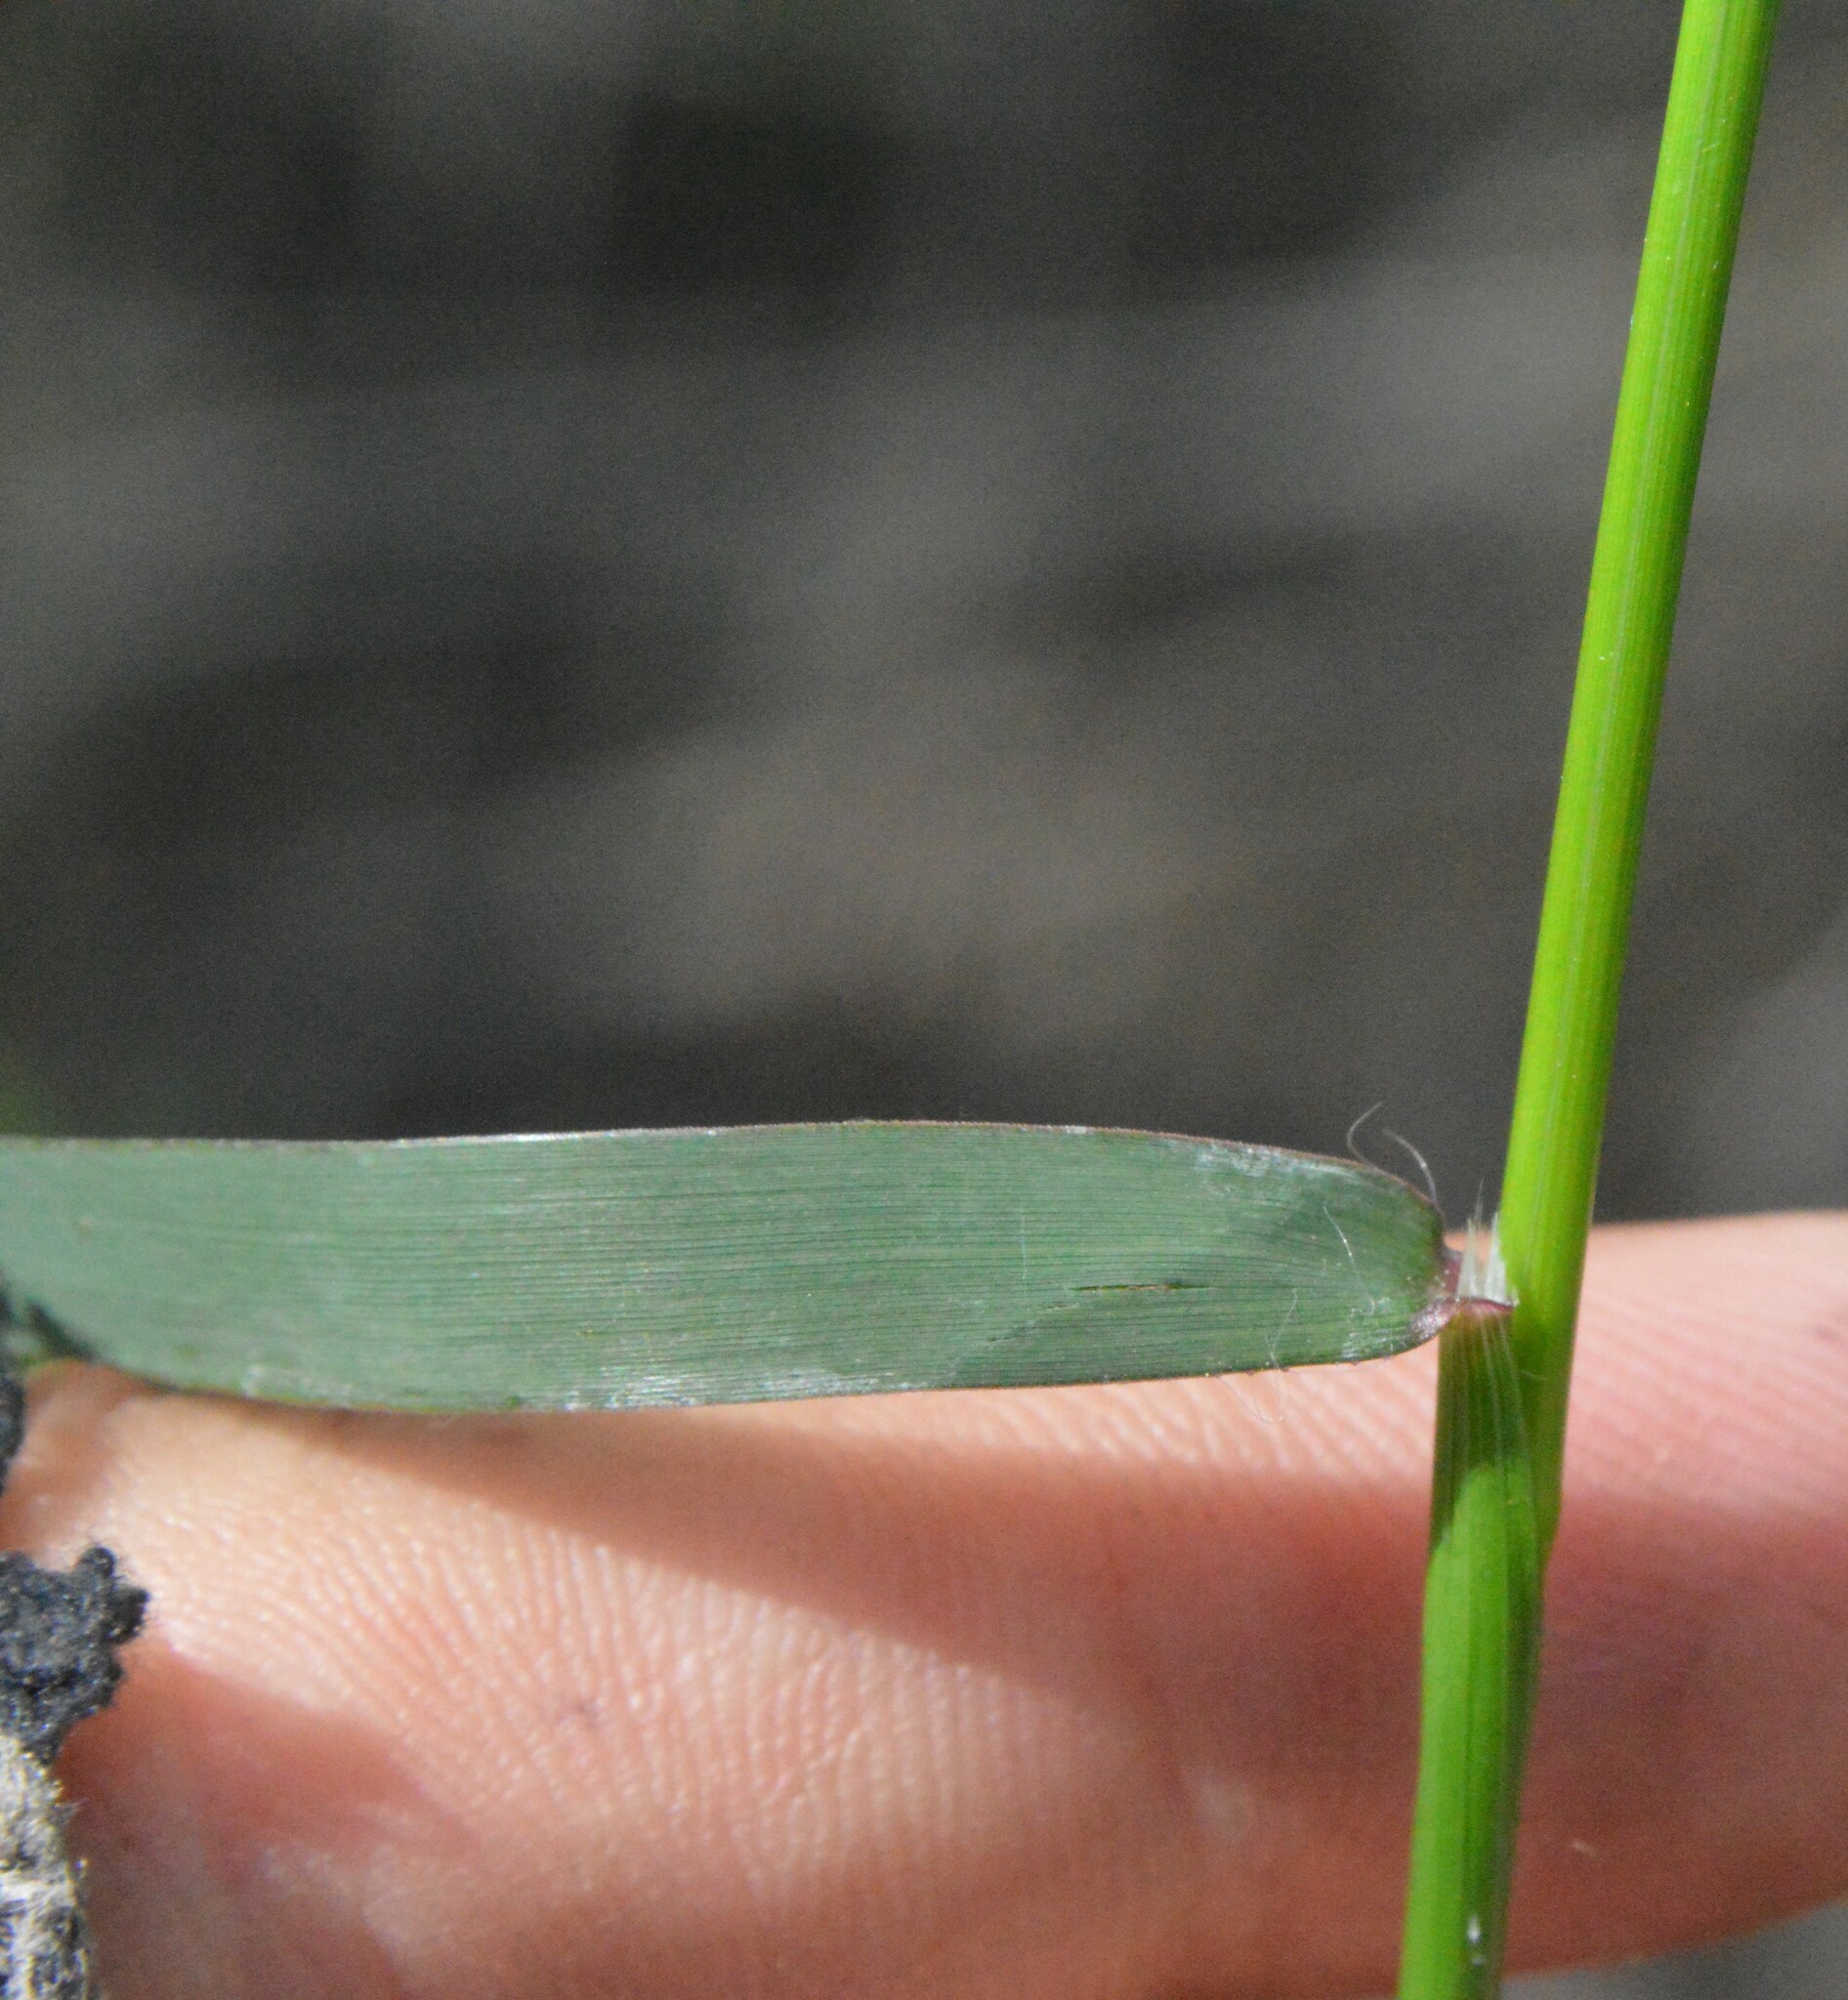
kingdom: Plantae
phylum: Tracheophyta
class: Liliopsida
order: Poales
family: Poaceae
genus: Dichanthelium
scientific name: Dichanthelium spretum
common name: Eaton's panicgrass
